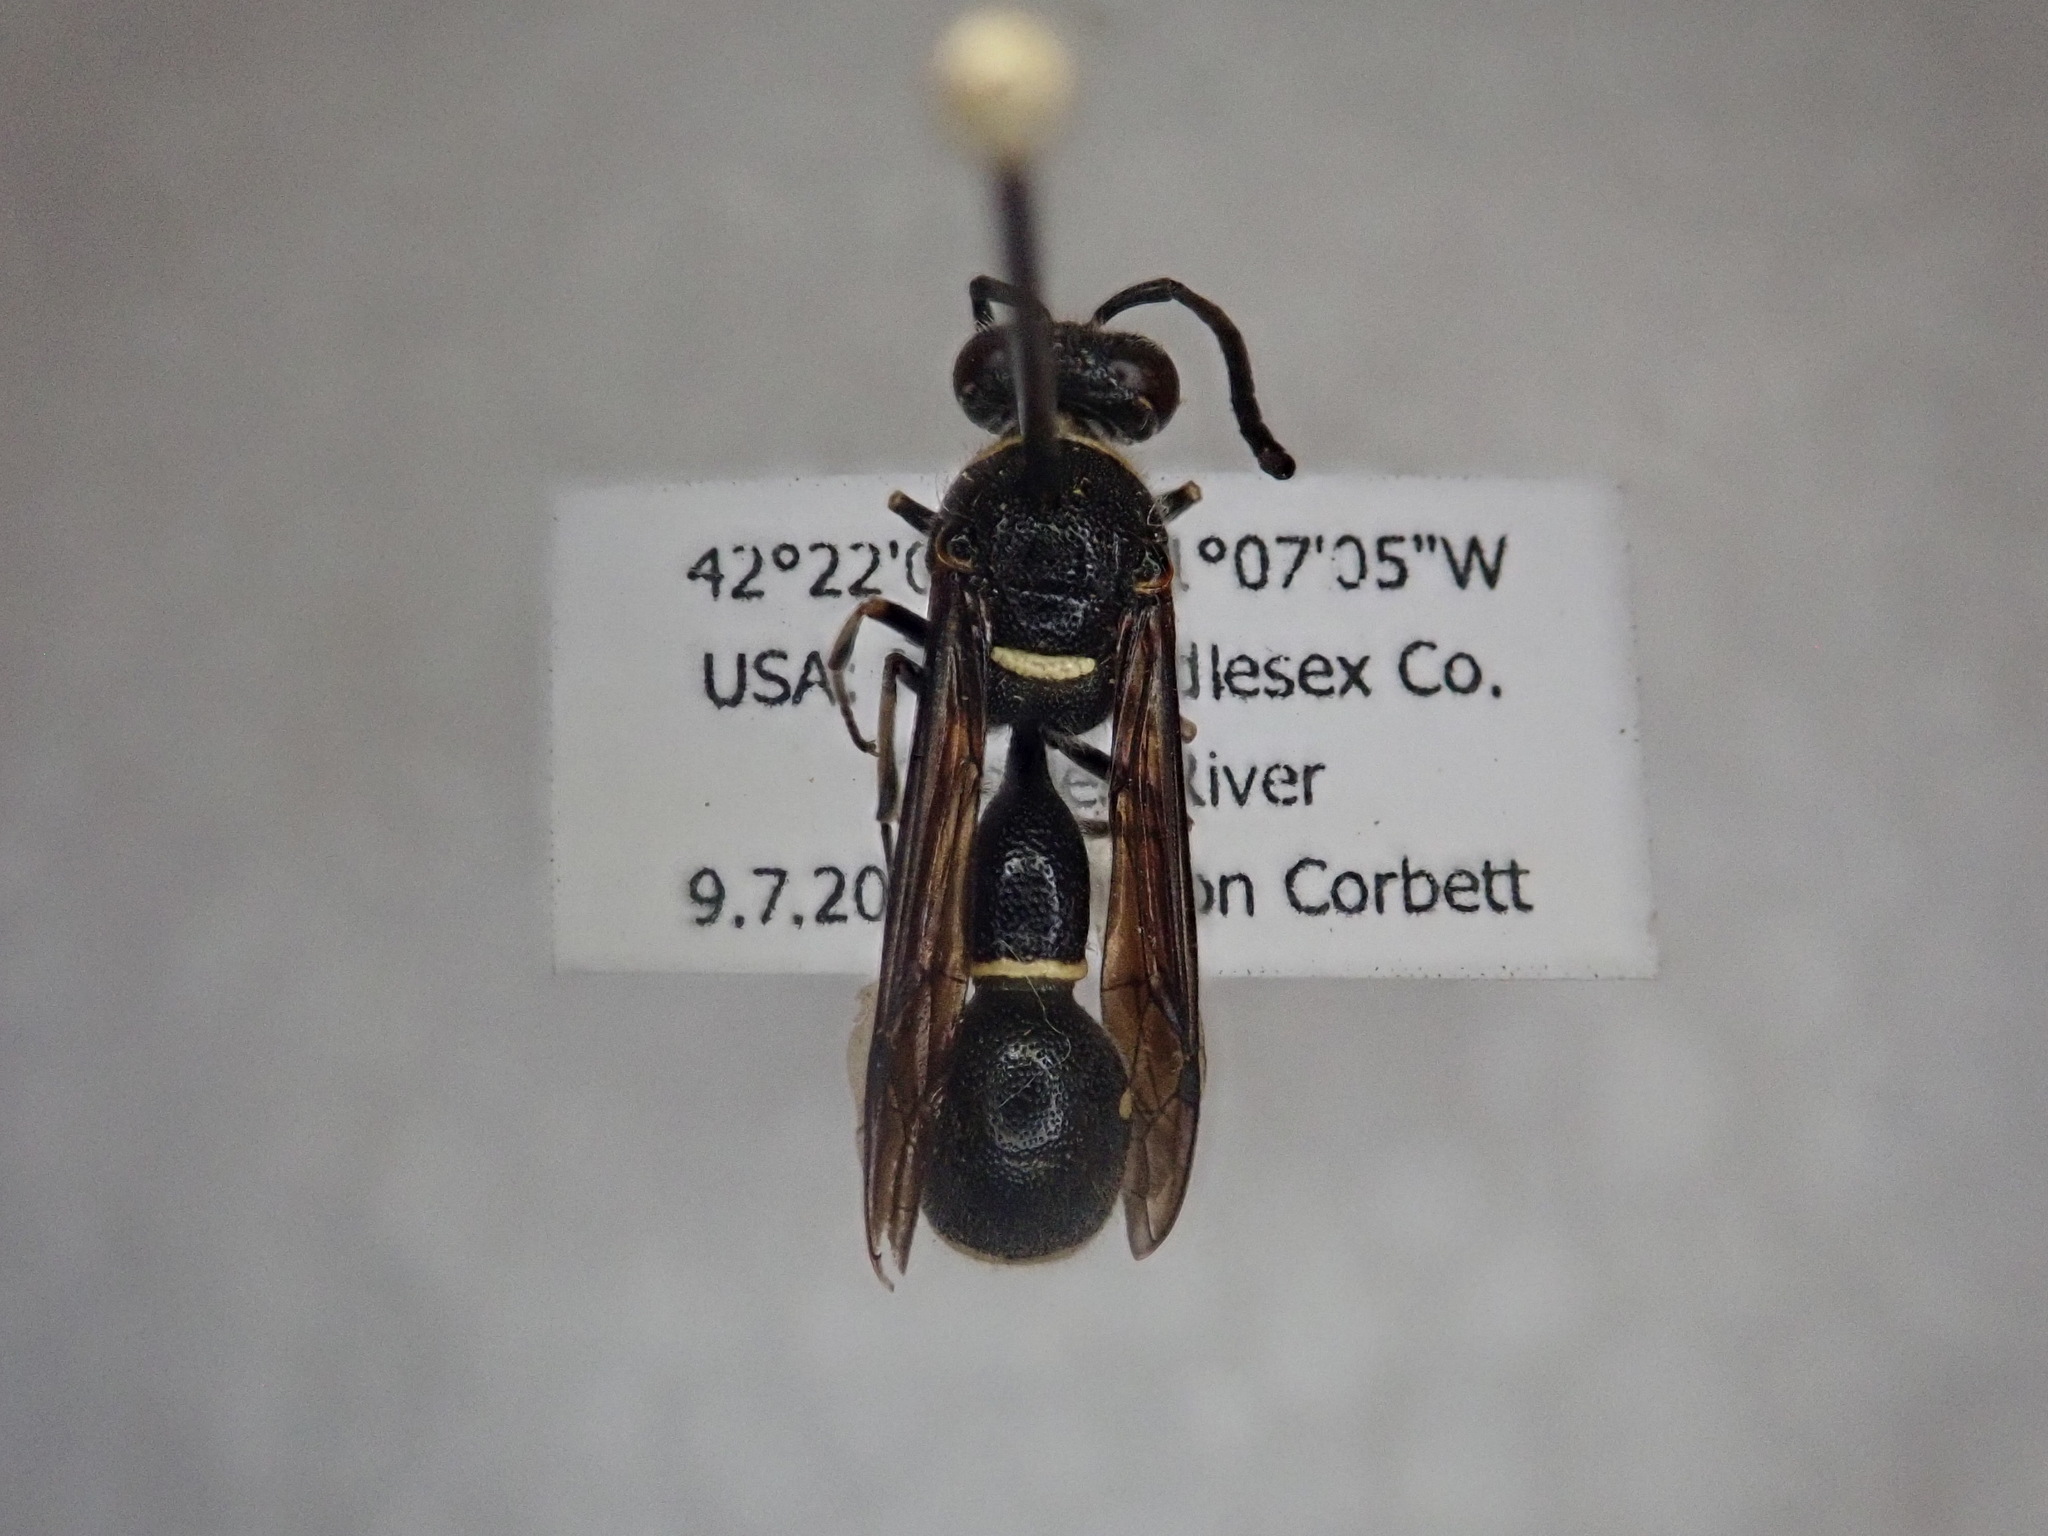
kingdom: Animalia
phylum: Arthropoda
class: Insecta
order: Hymenoptera
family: Vespidae
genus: Eumenes
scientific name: Eumenes fraternus
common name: Fraternal potter wasp
